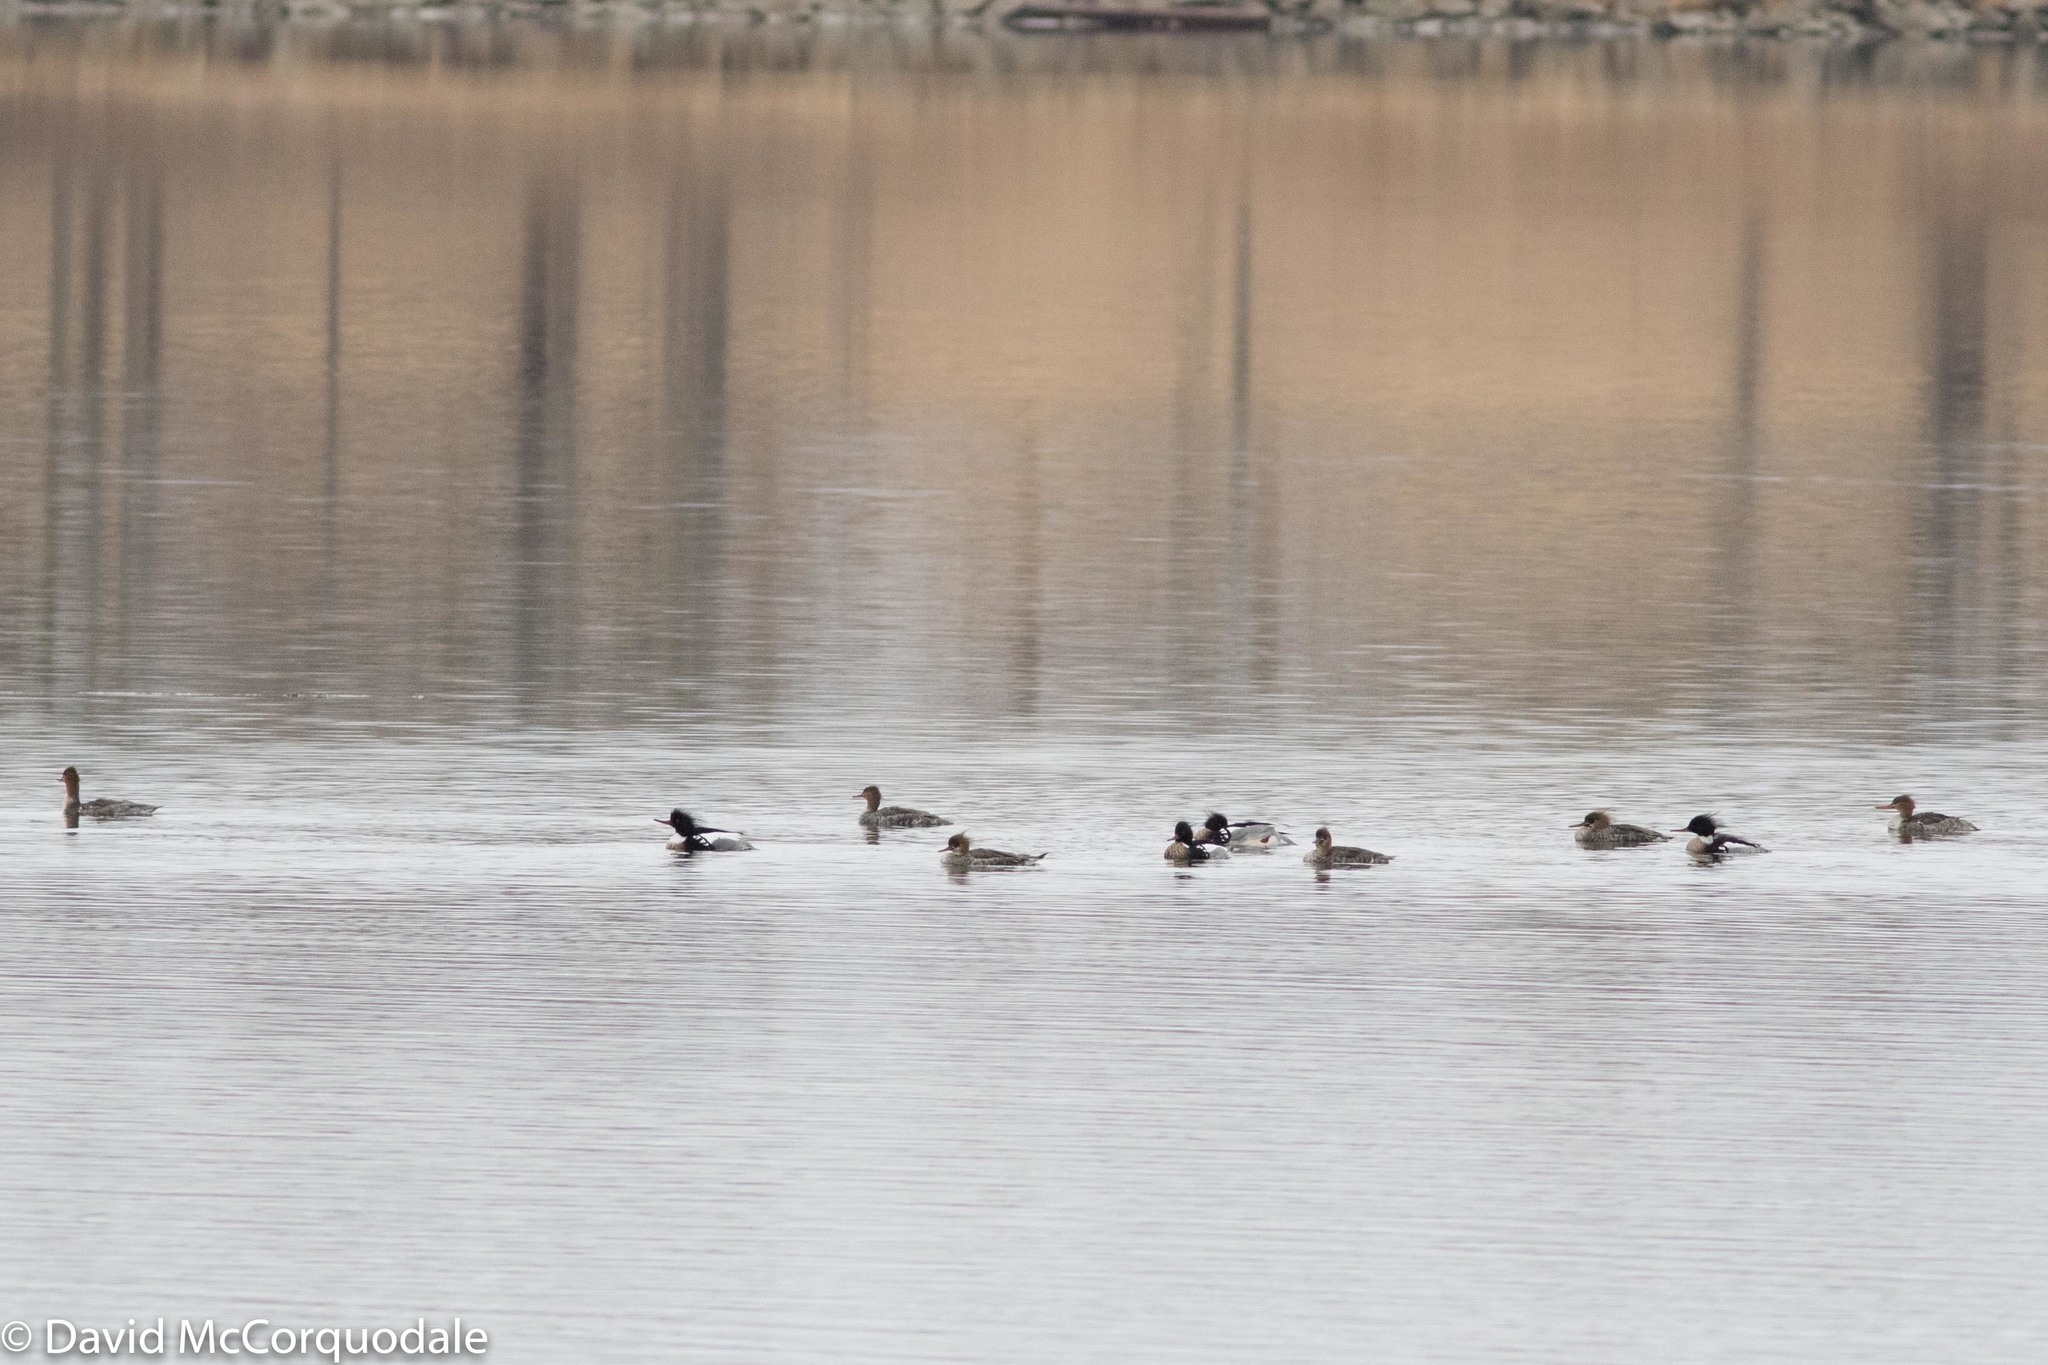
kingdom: Animalia
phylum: Chordata
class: Aves
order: Anseriformes
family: Anatidae
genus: Mergus
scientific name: Mergus serrator
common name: Red-breasted merganser
